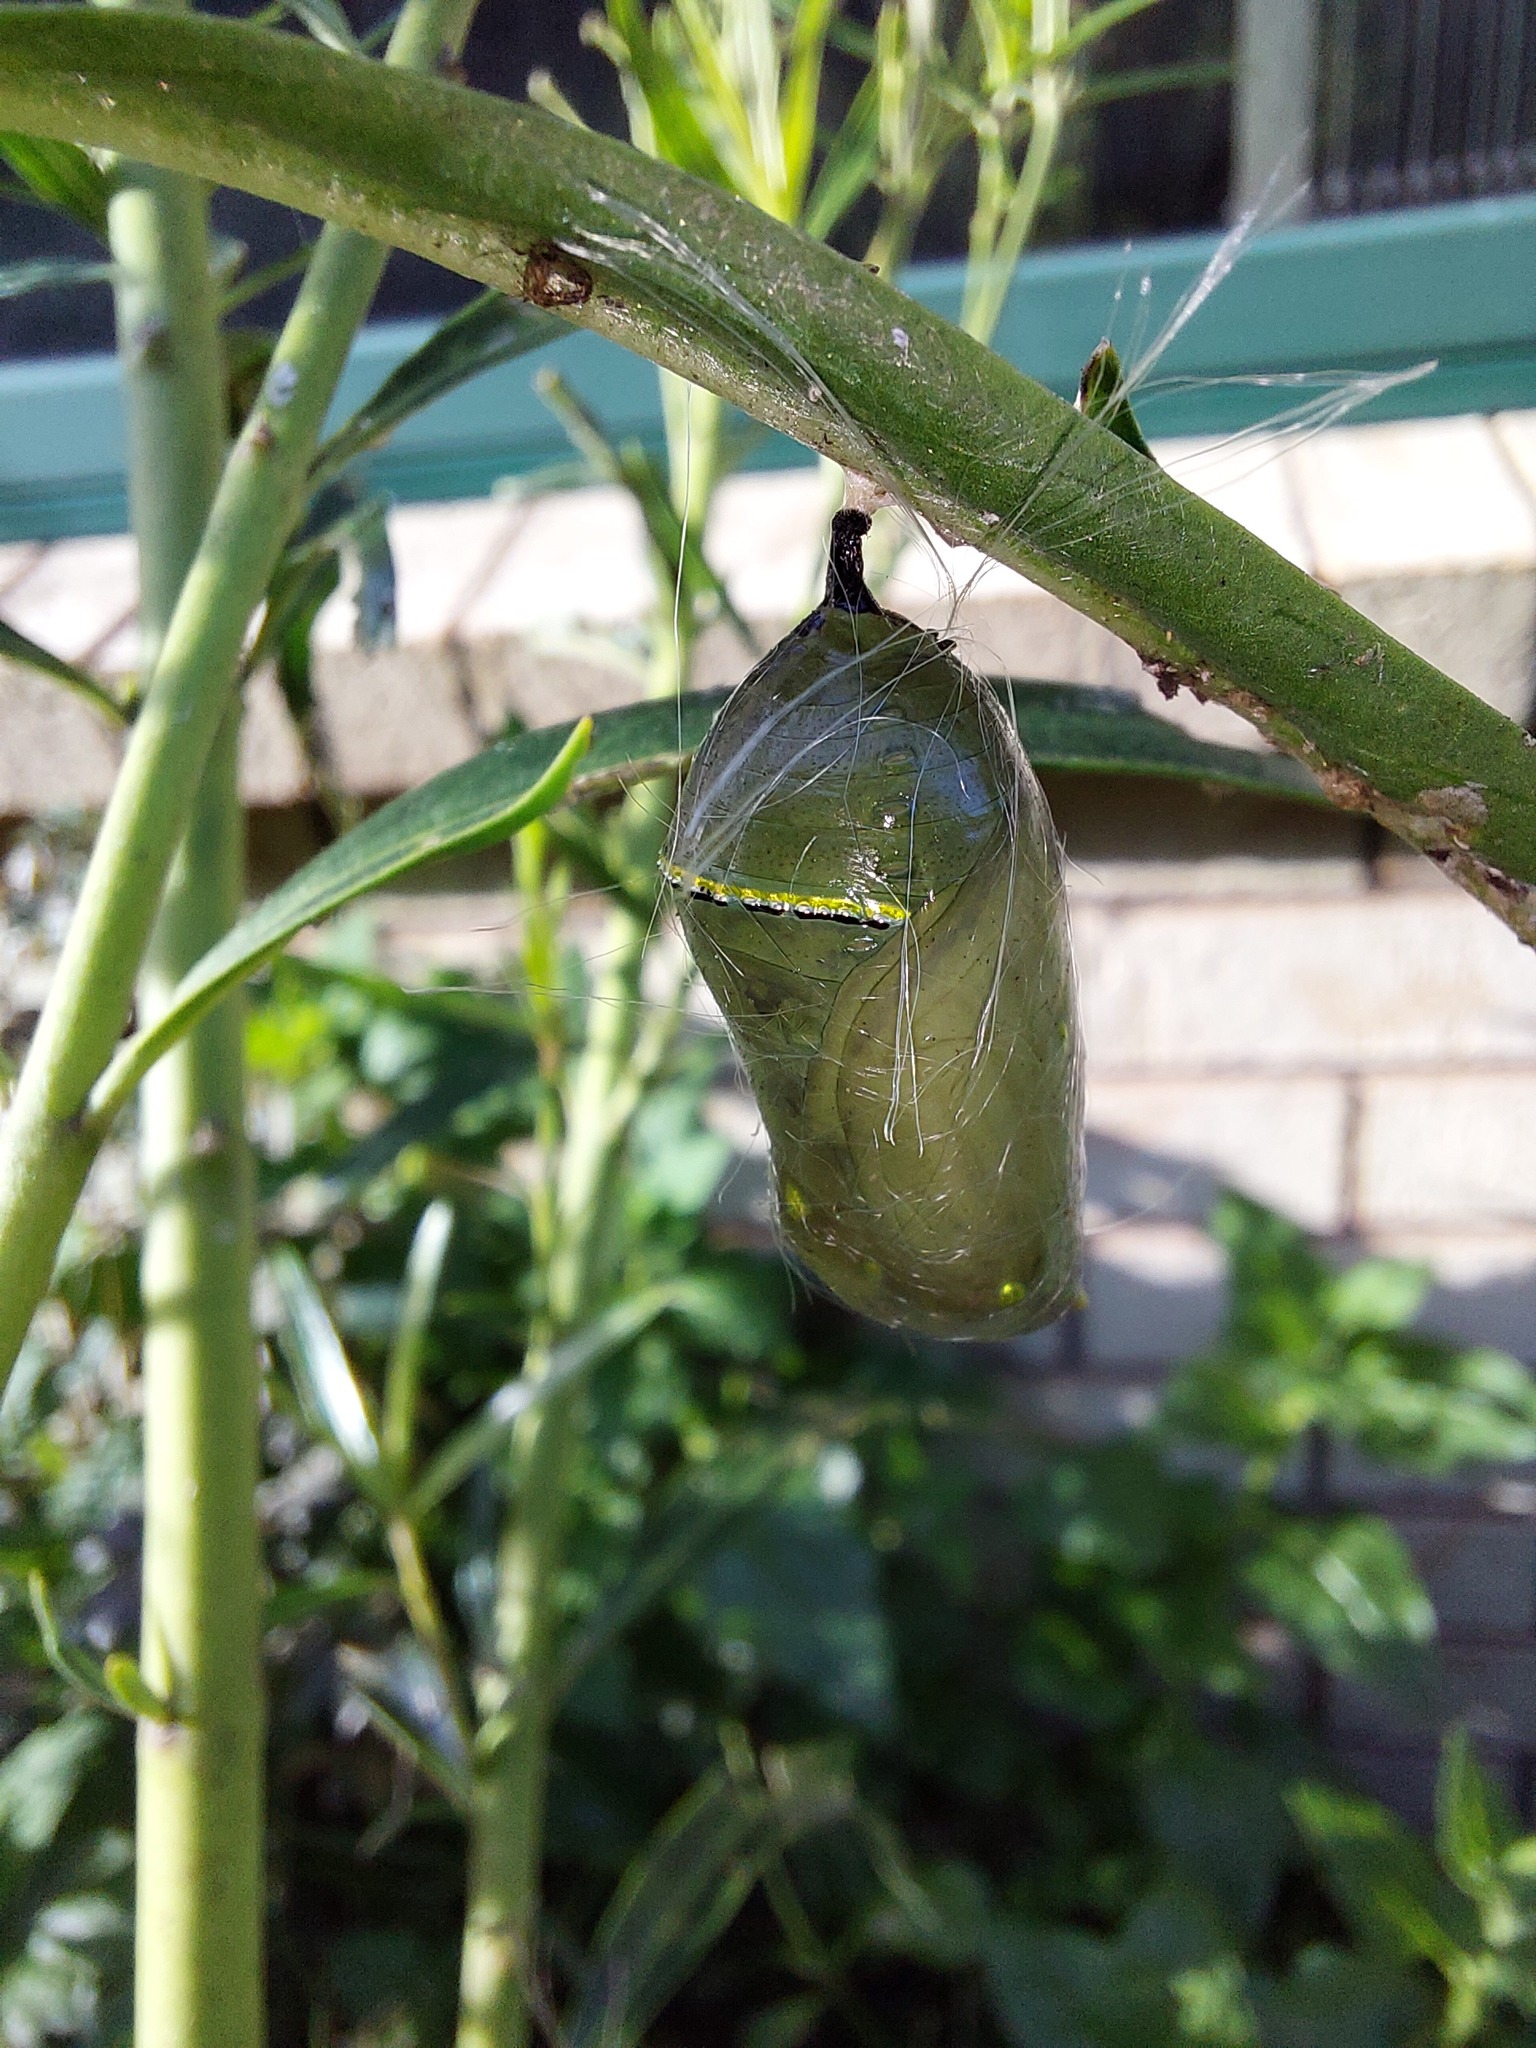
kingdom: Plantae
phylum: Tracheophyta
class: Magnoliopsida
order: Gentianales
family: Apocynaceae
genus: Gomphocarpus
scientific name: Gomphocarpus physocarpus
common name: Balloon cotton bush
